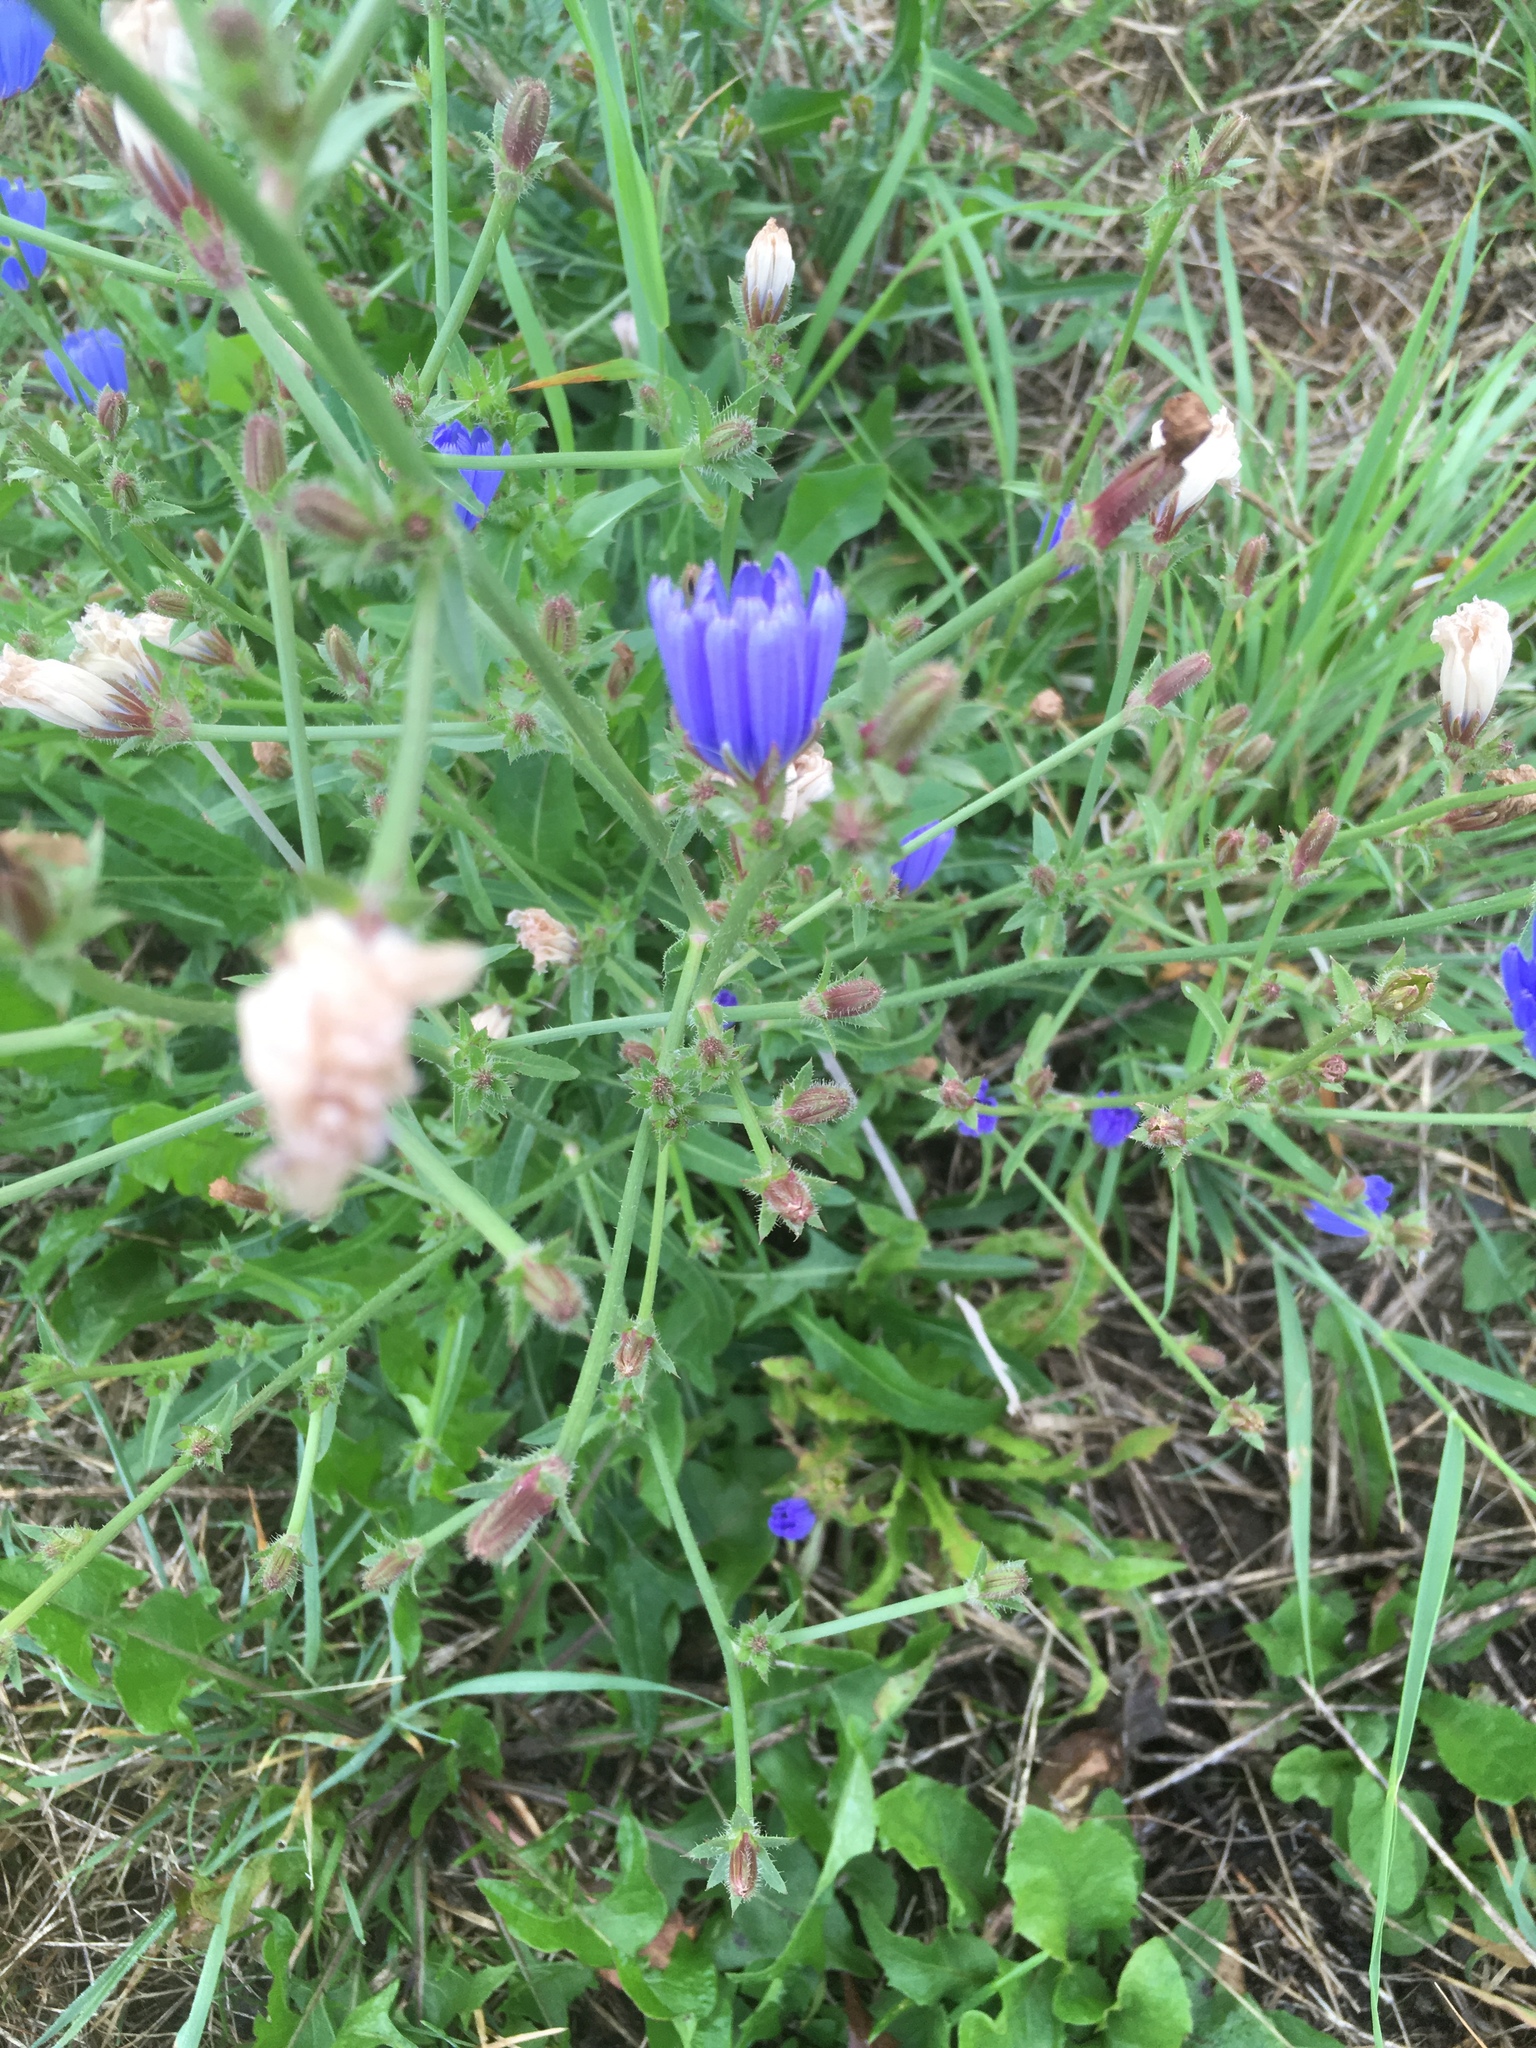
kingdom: Plantae
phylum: Tracheophyta
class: Magnoliopsida
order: Asterales
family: Asteraceae
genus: Cichorium
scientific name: Cichorium intybus
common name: Chicory
